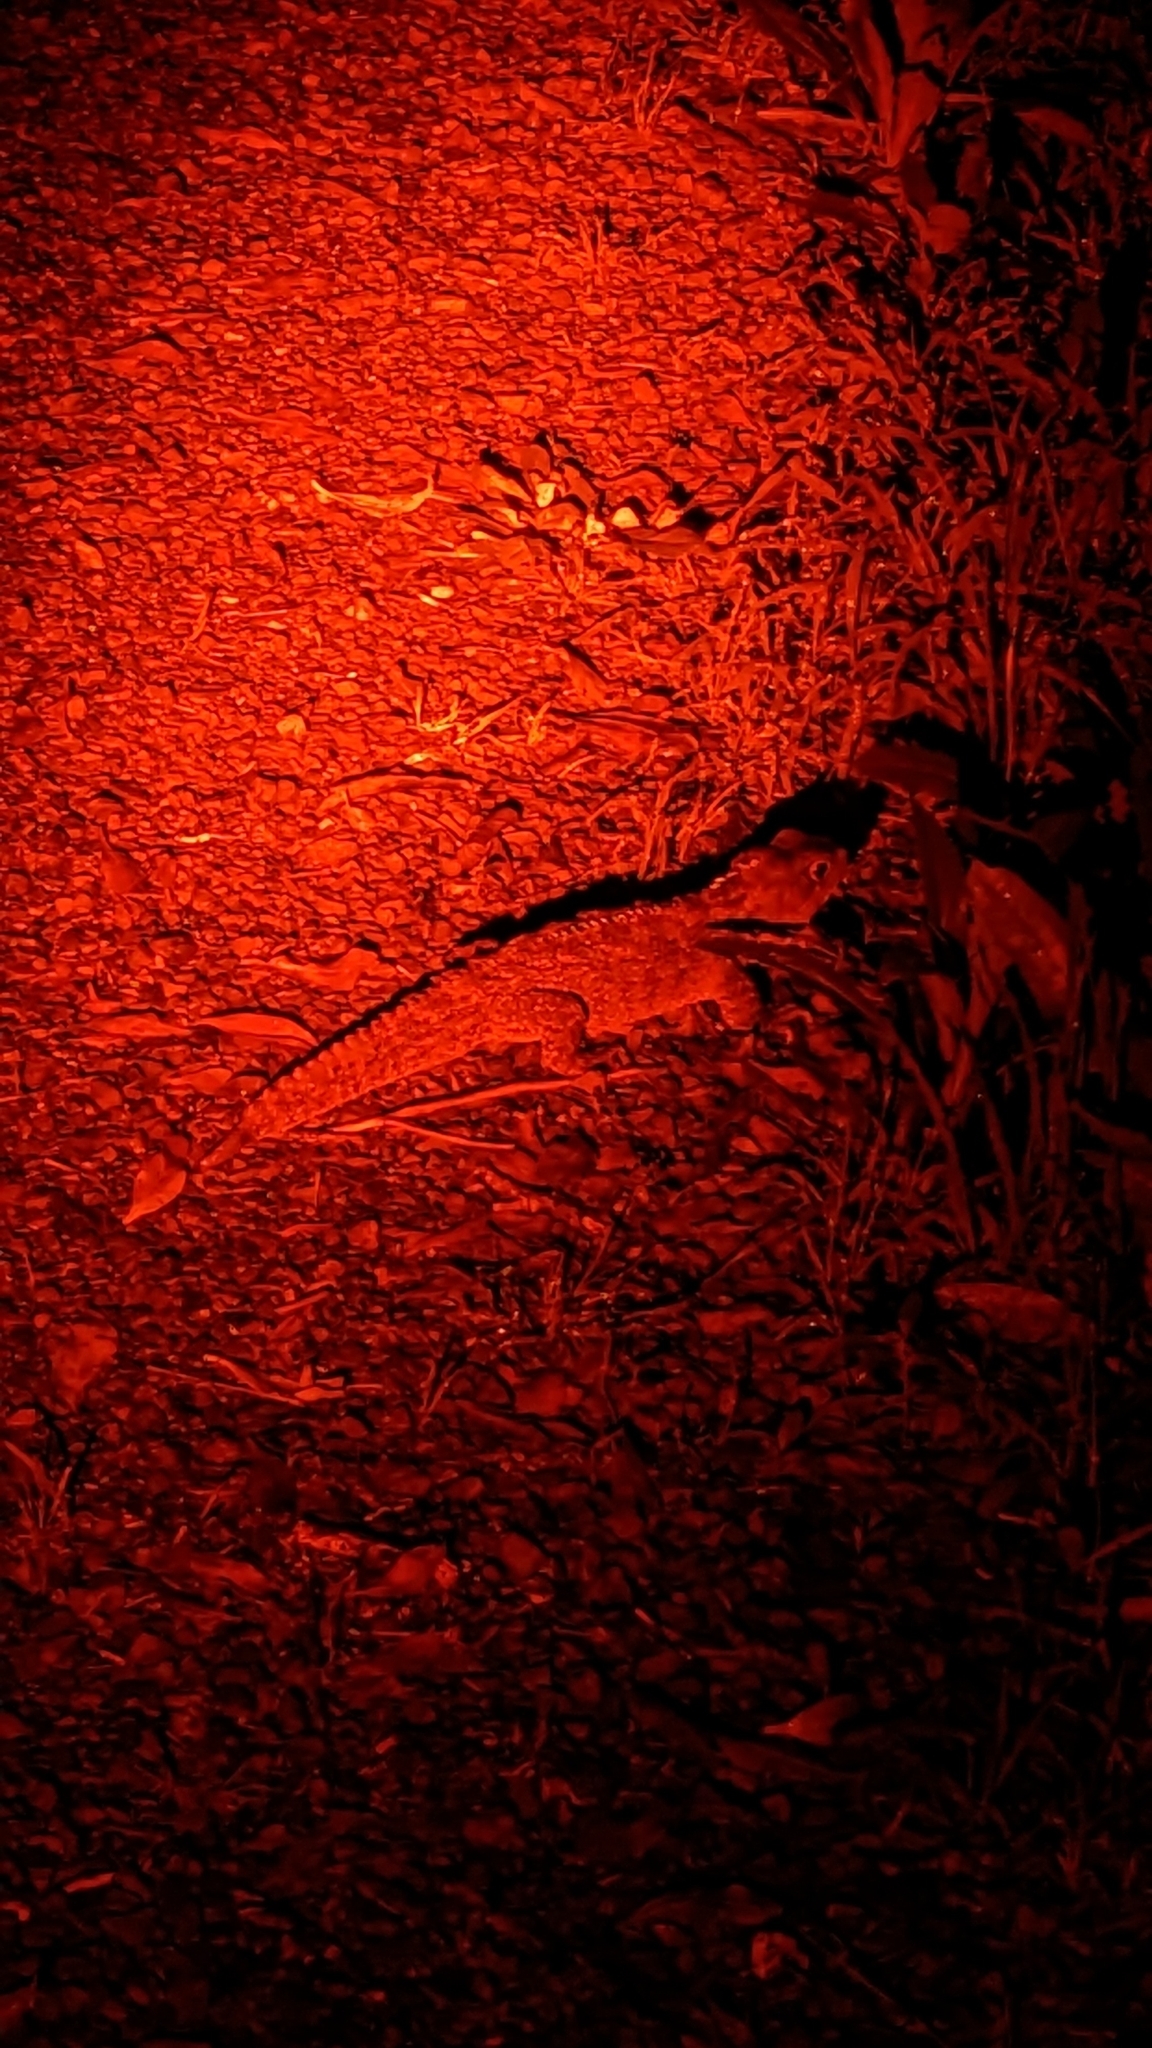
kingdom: Animalia
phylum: Chordata
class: Sphenodontia
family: Sphenodontidae
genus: Sphenodon
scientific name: Sphenodon punctatus
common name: Tuatara
